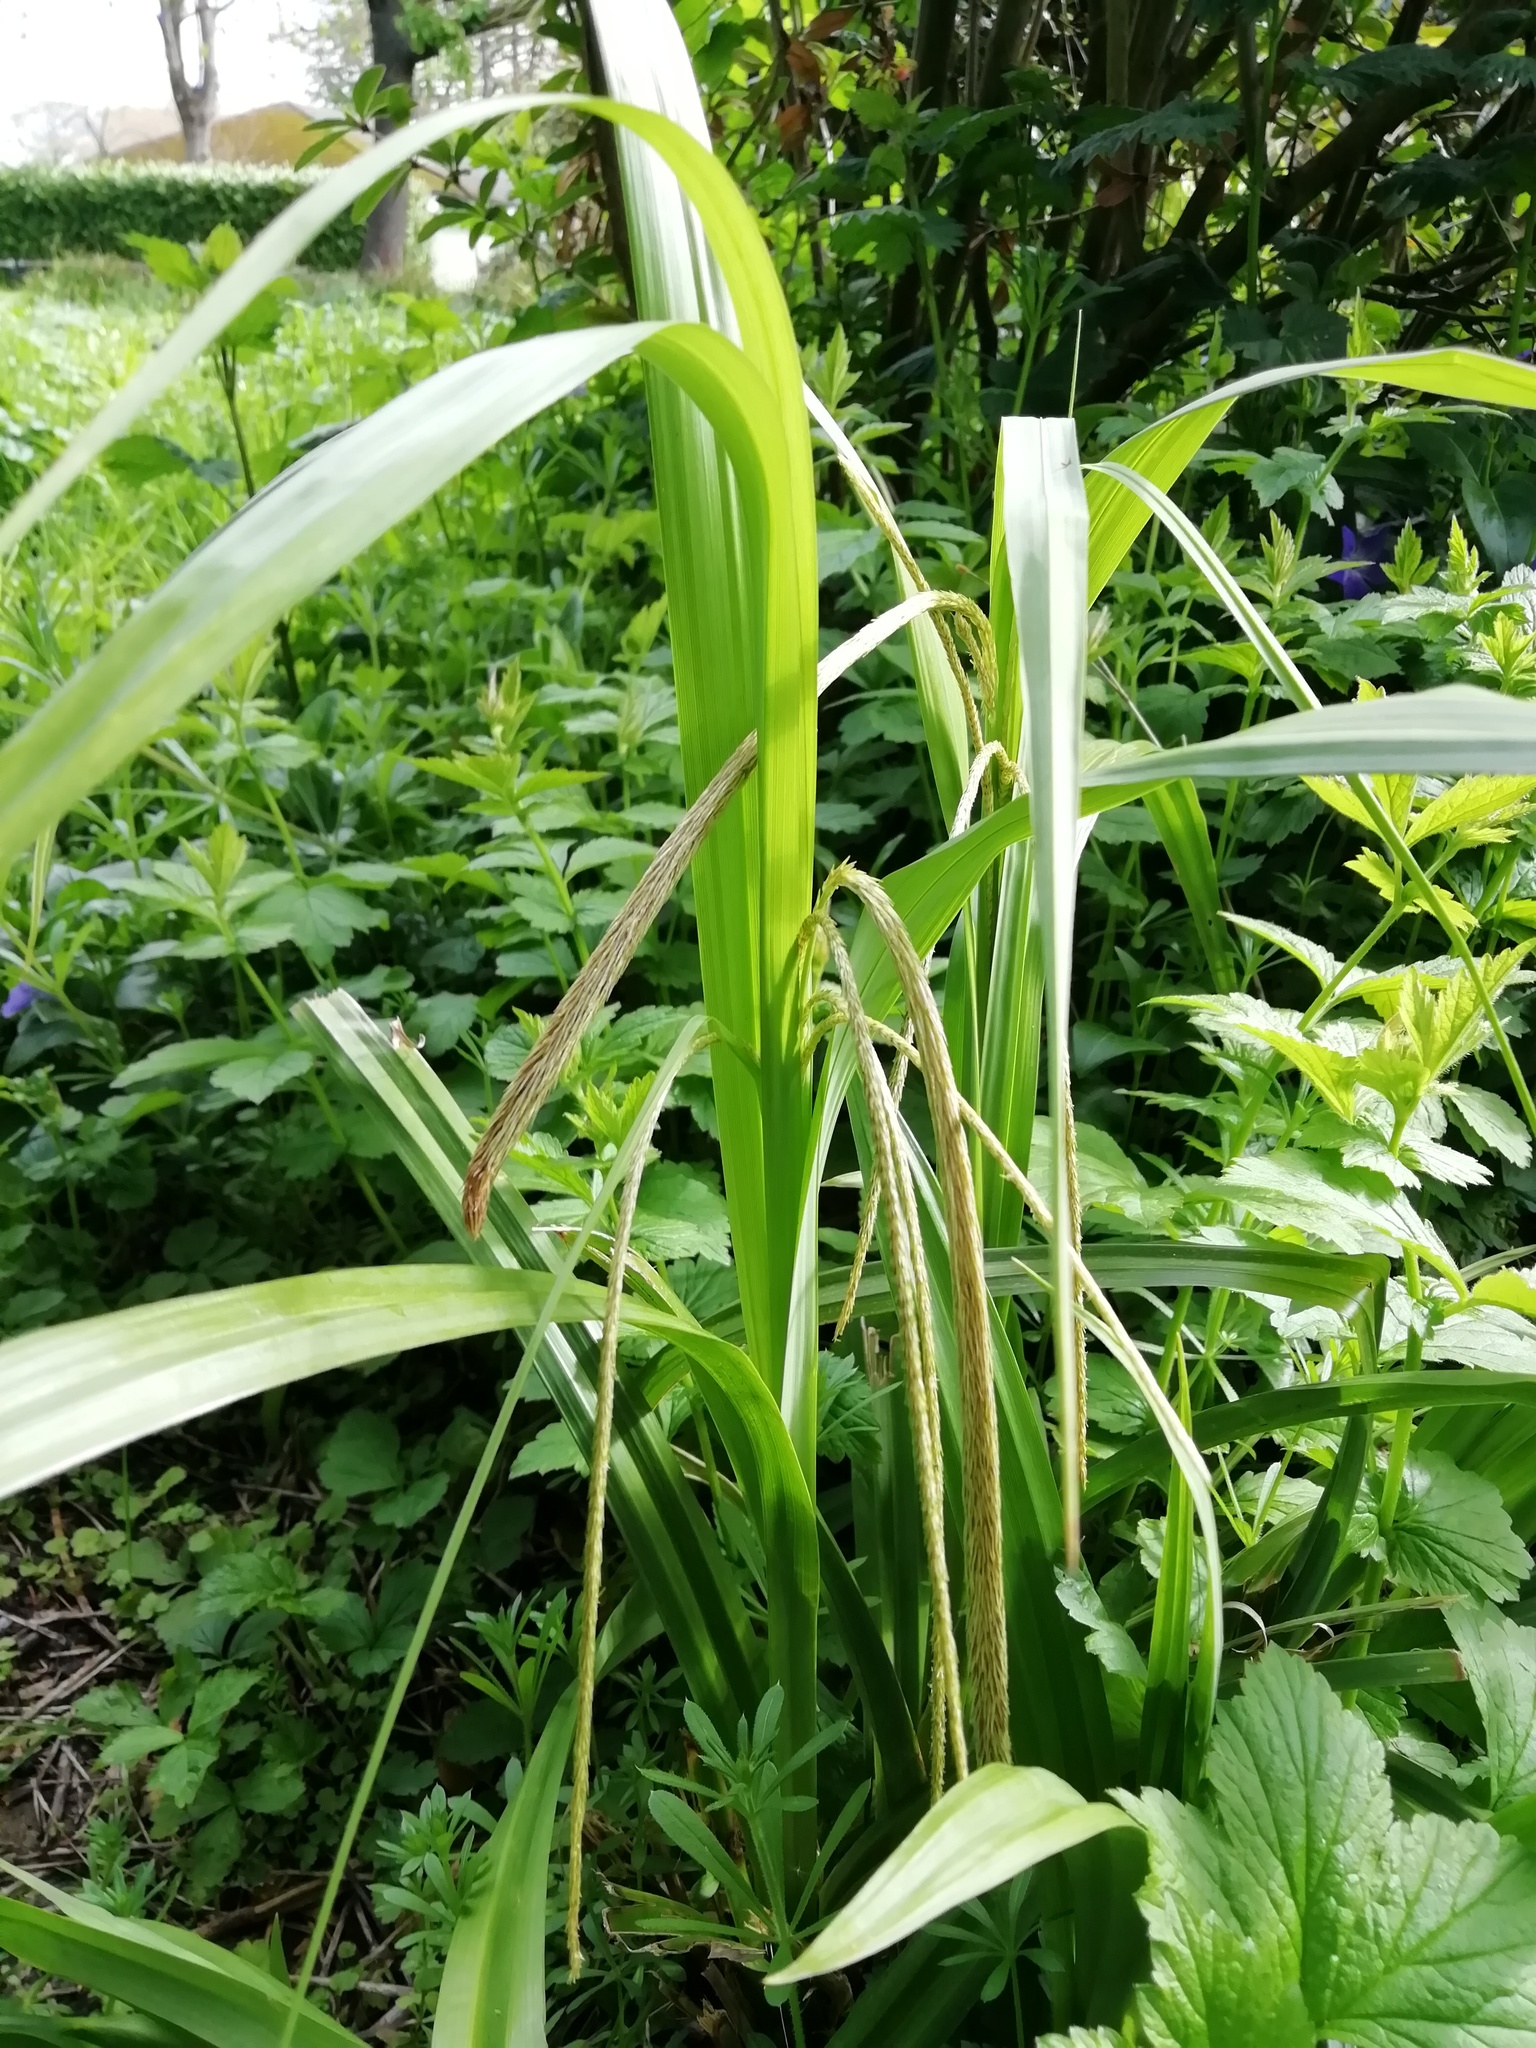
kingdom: Plantae
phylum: Tracheophyta
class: Liliopsida
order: Poales
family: Cyperaceae
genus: Carex
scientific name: Carex pendula
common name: Pendulous sedge
